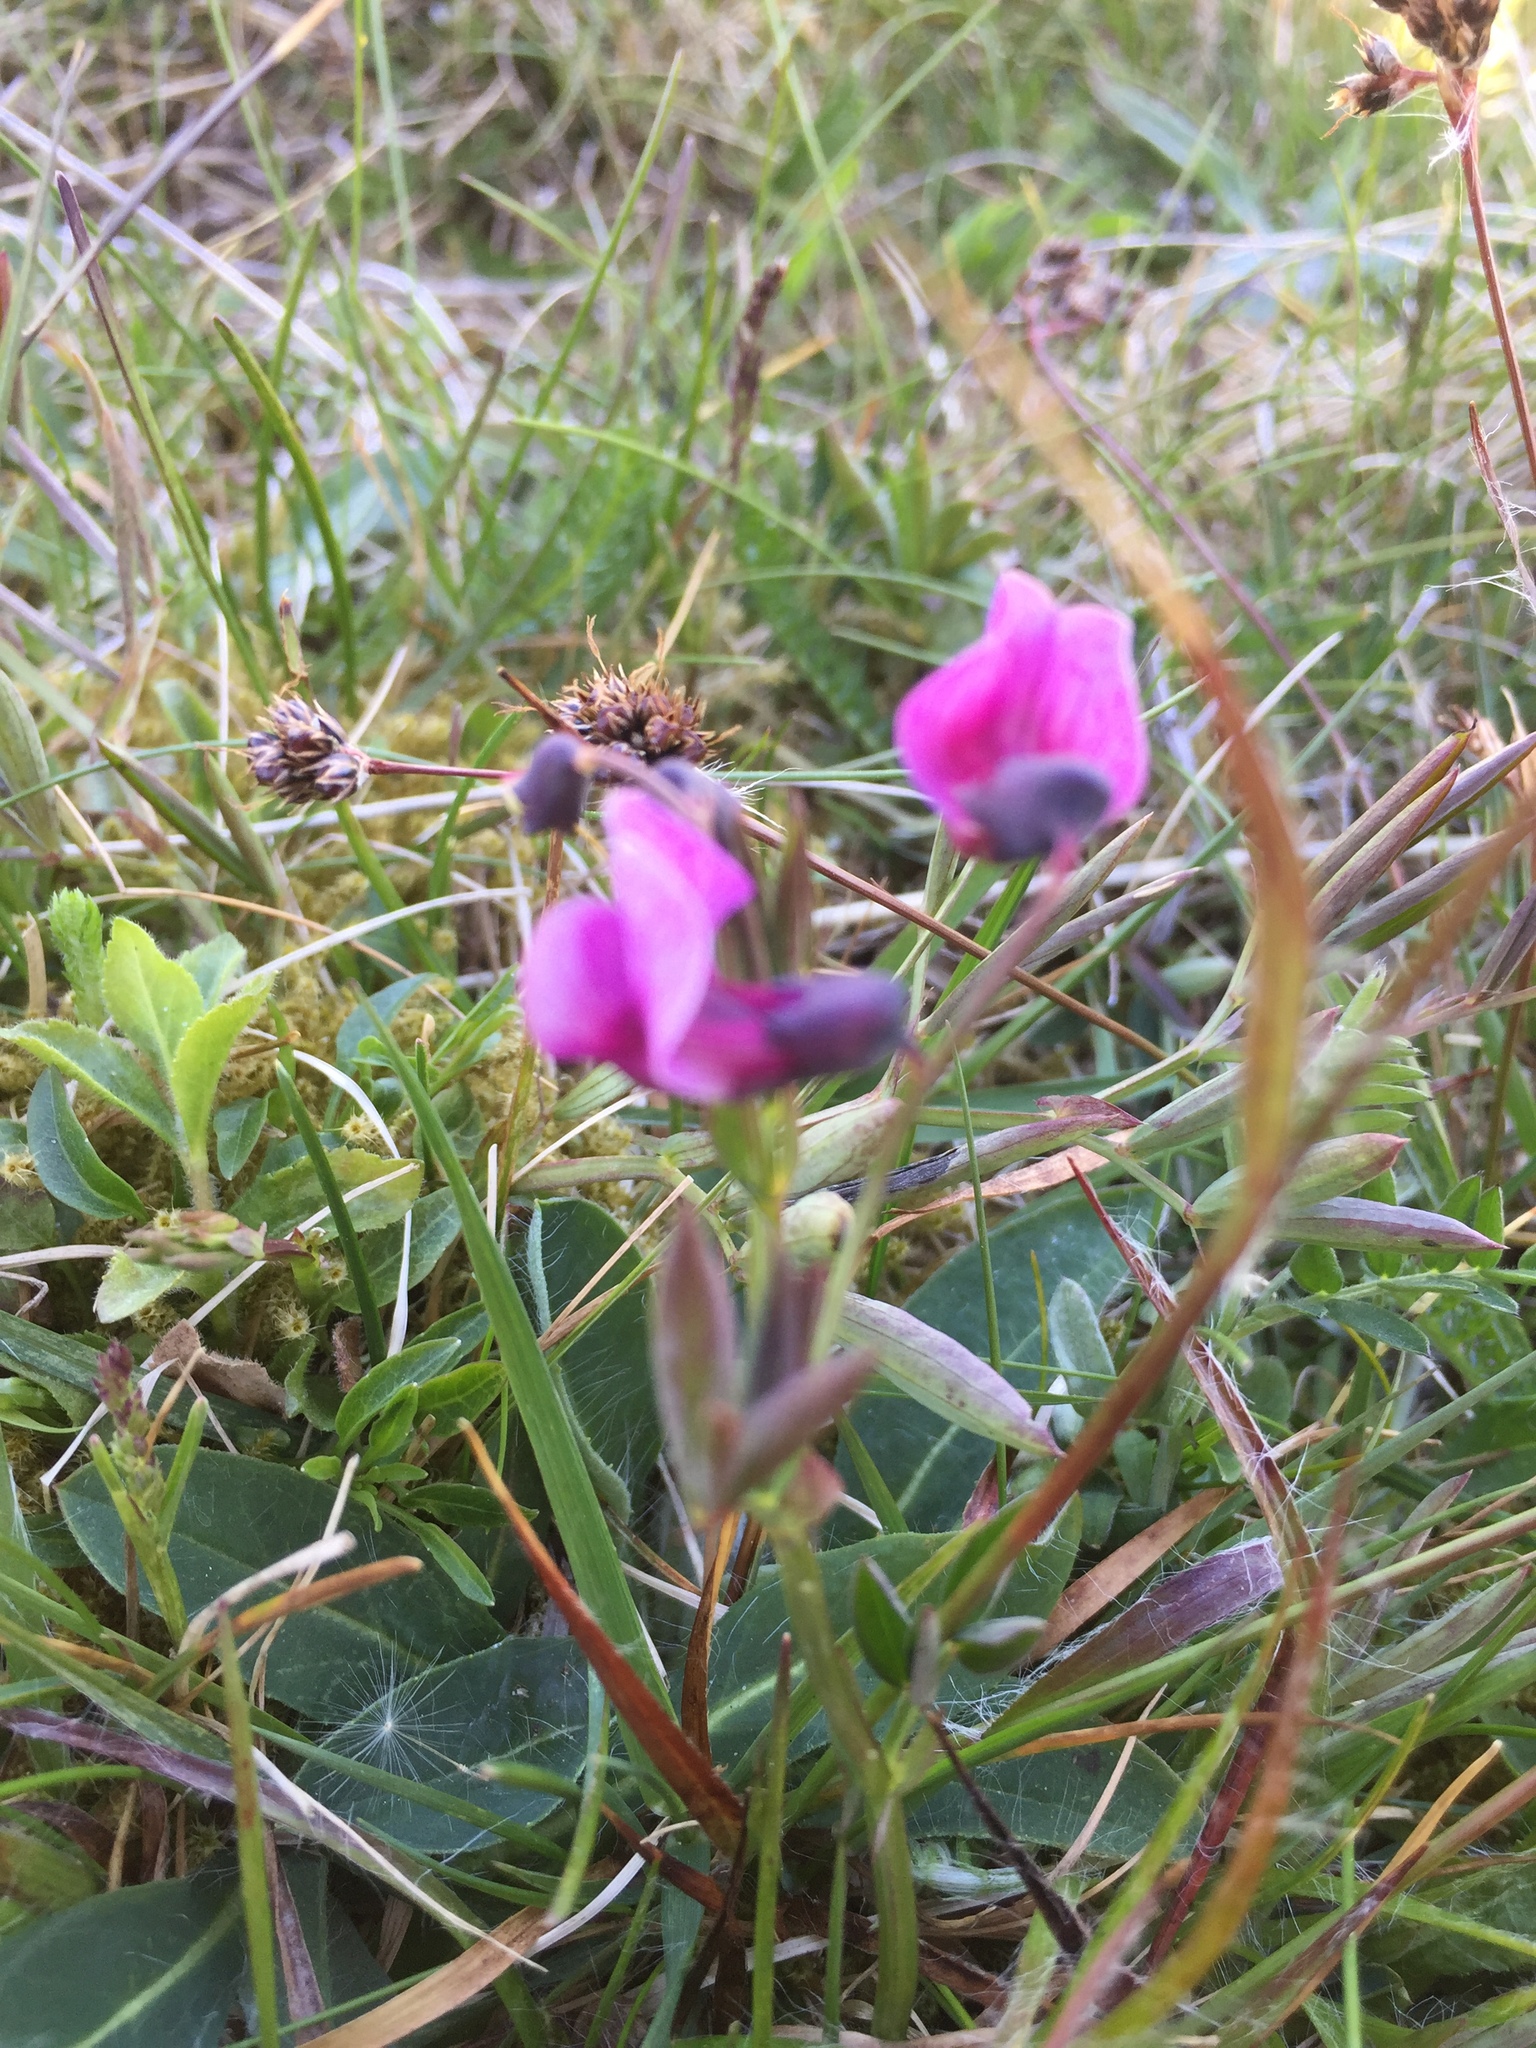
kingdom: Plantae
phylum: Tracheophyta
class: Magnoliopsida
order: Fabales
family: Fabaceae
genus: Lathyrus
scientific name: Lathyrus linifolius
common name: Bitter-vetch
